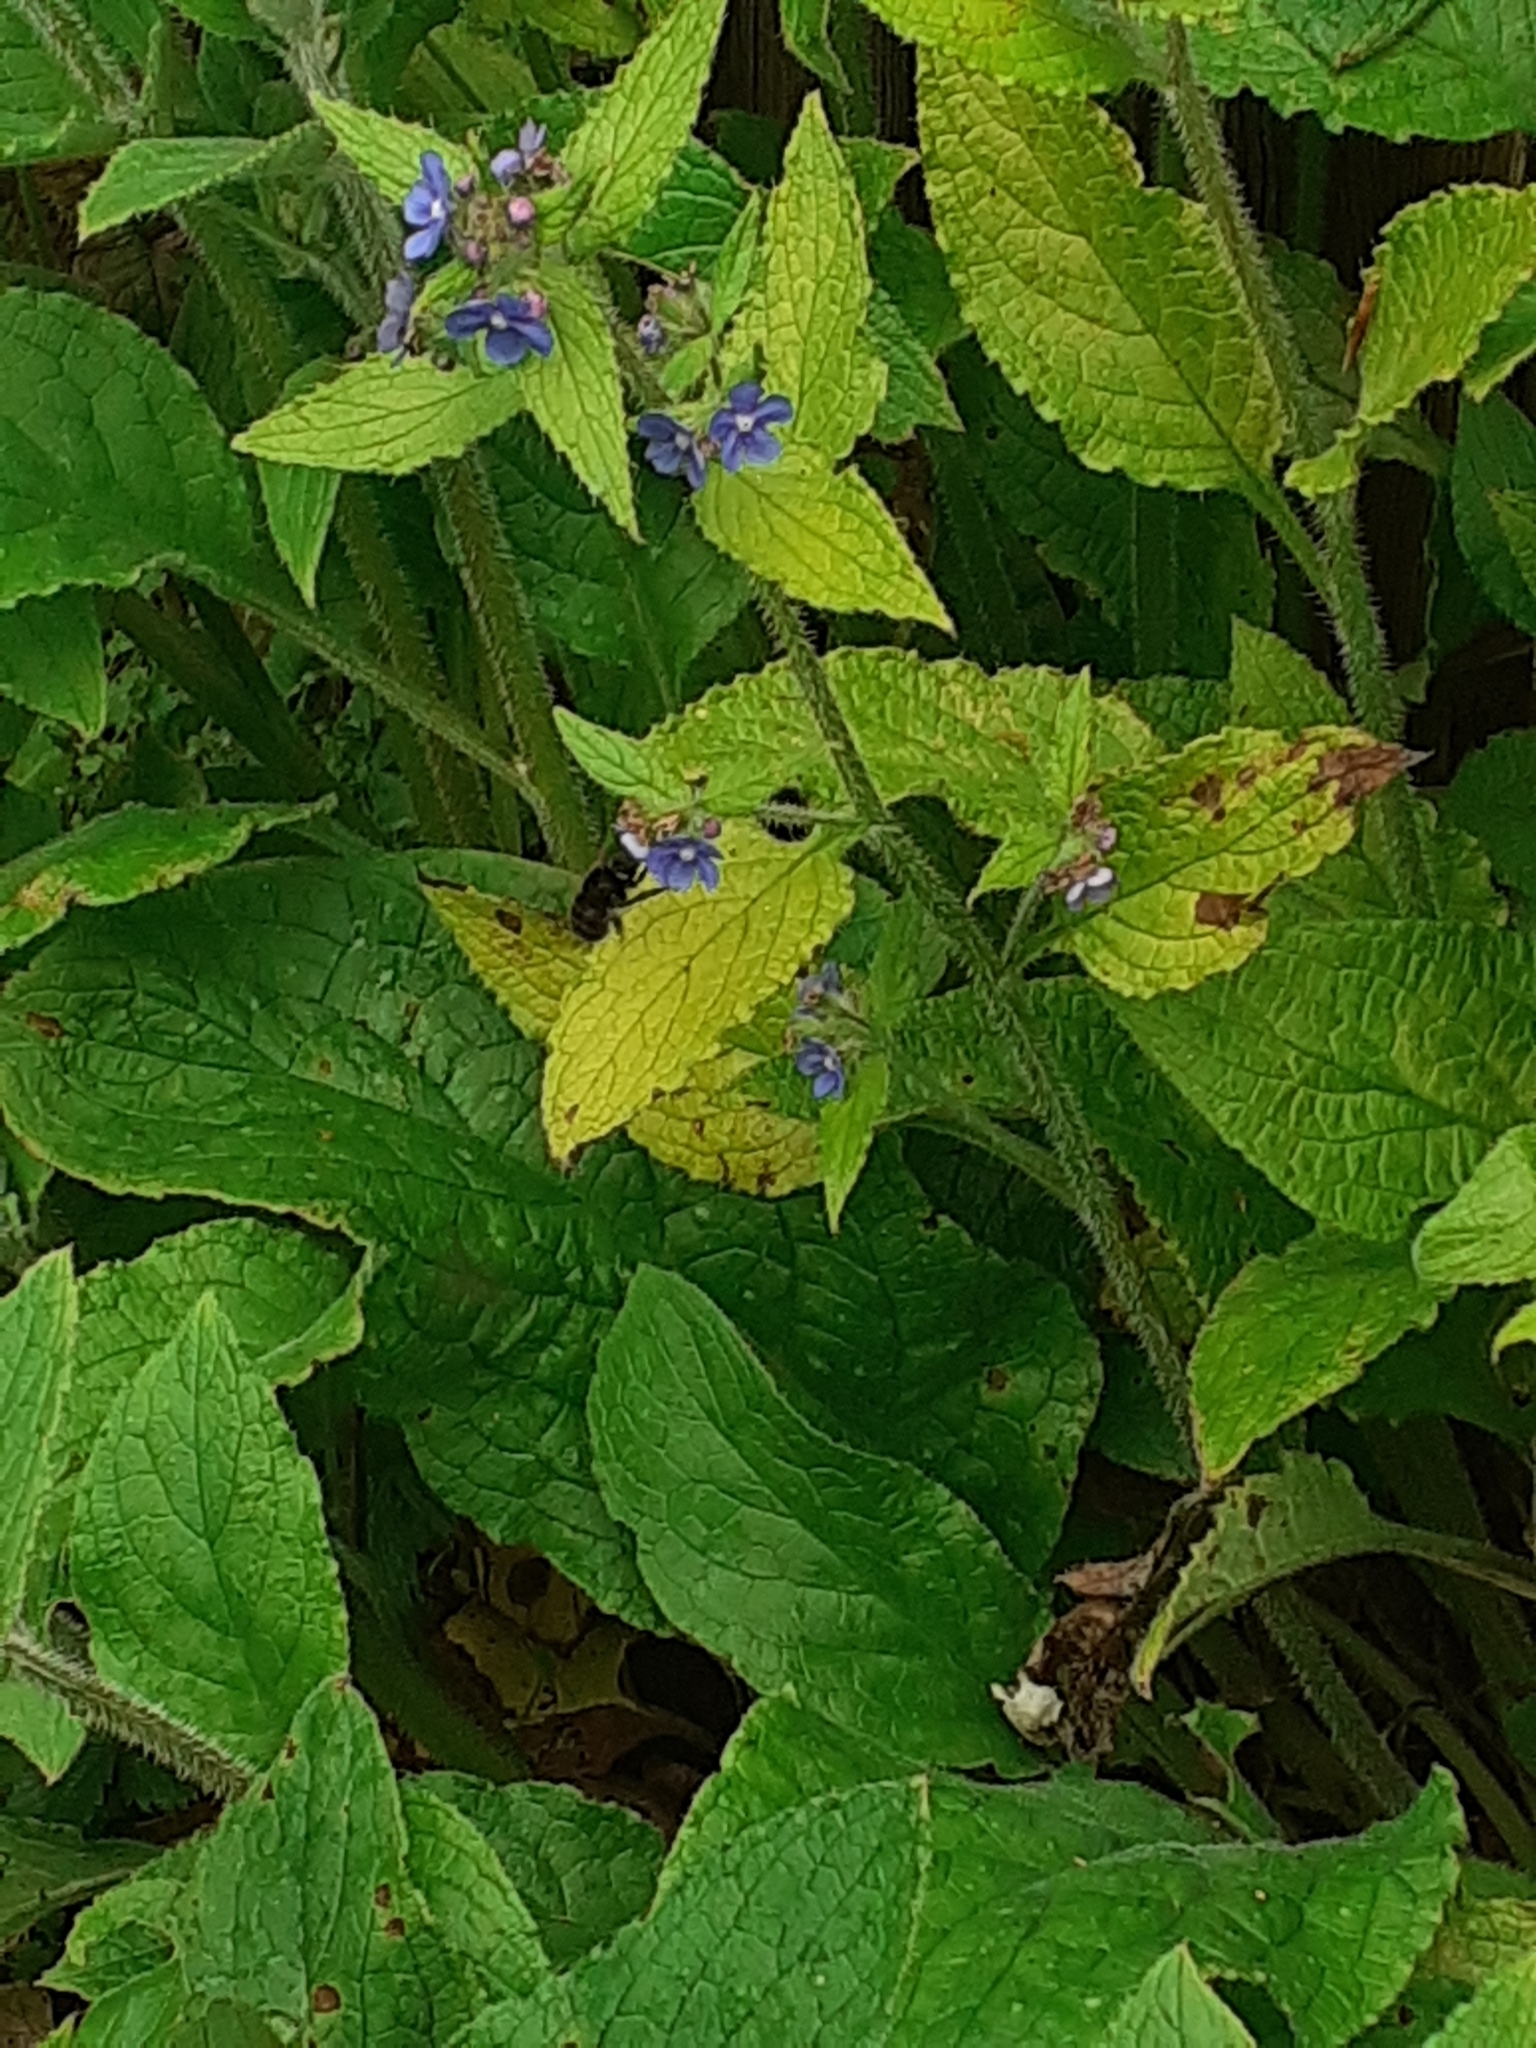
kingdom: Animalia
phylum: Arthropoda
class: Insecta
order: Hymenoptera
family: Apidae
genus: Anthophora
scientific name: Anthophora plumipes
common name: Hairy-footed flower bee
